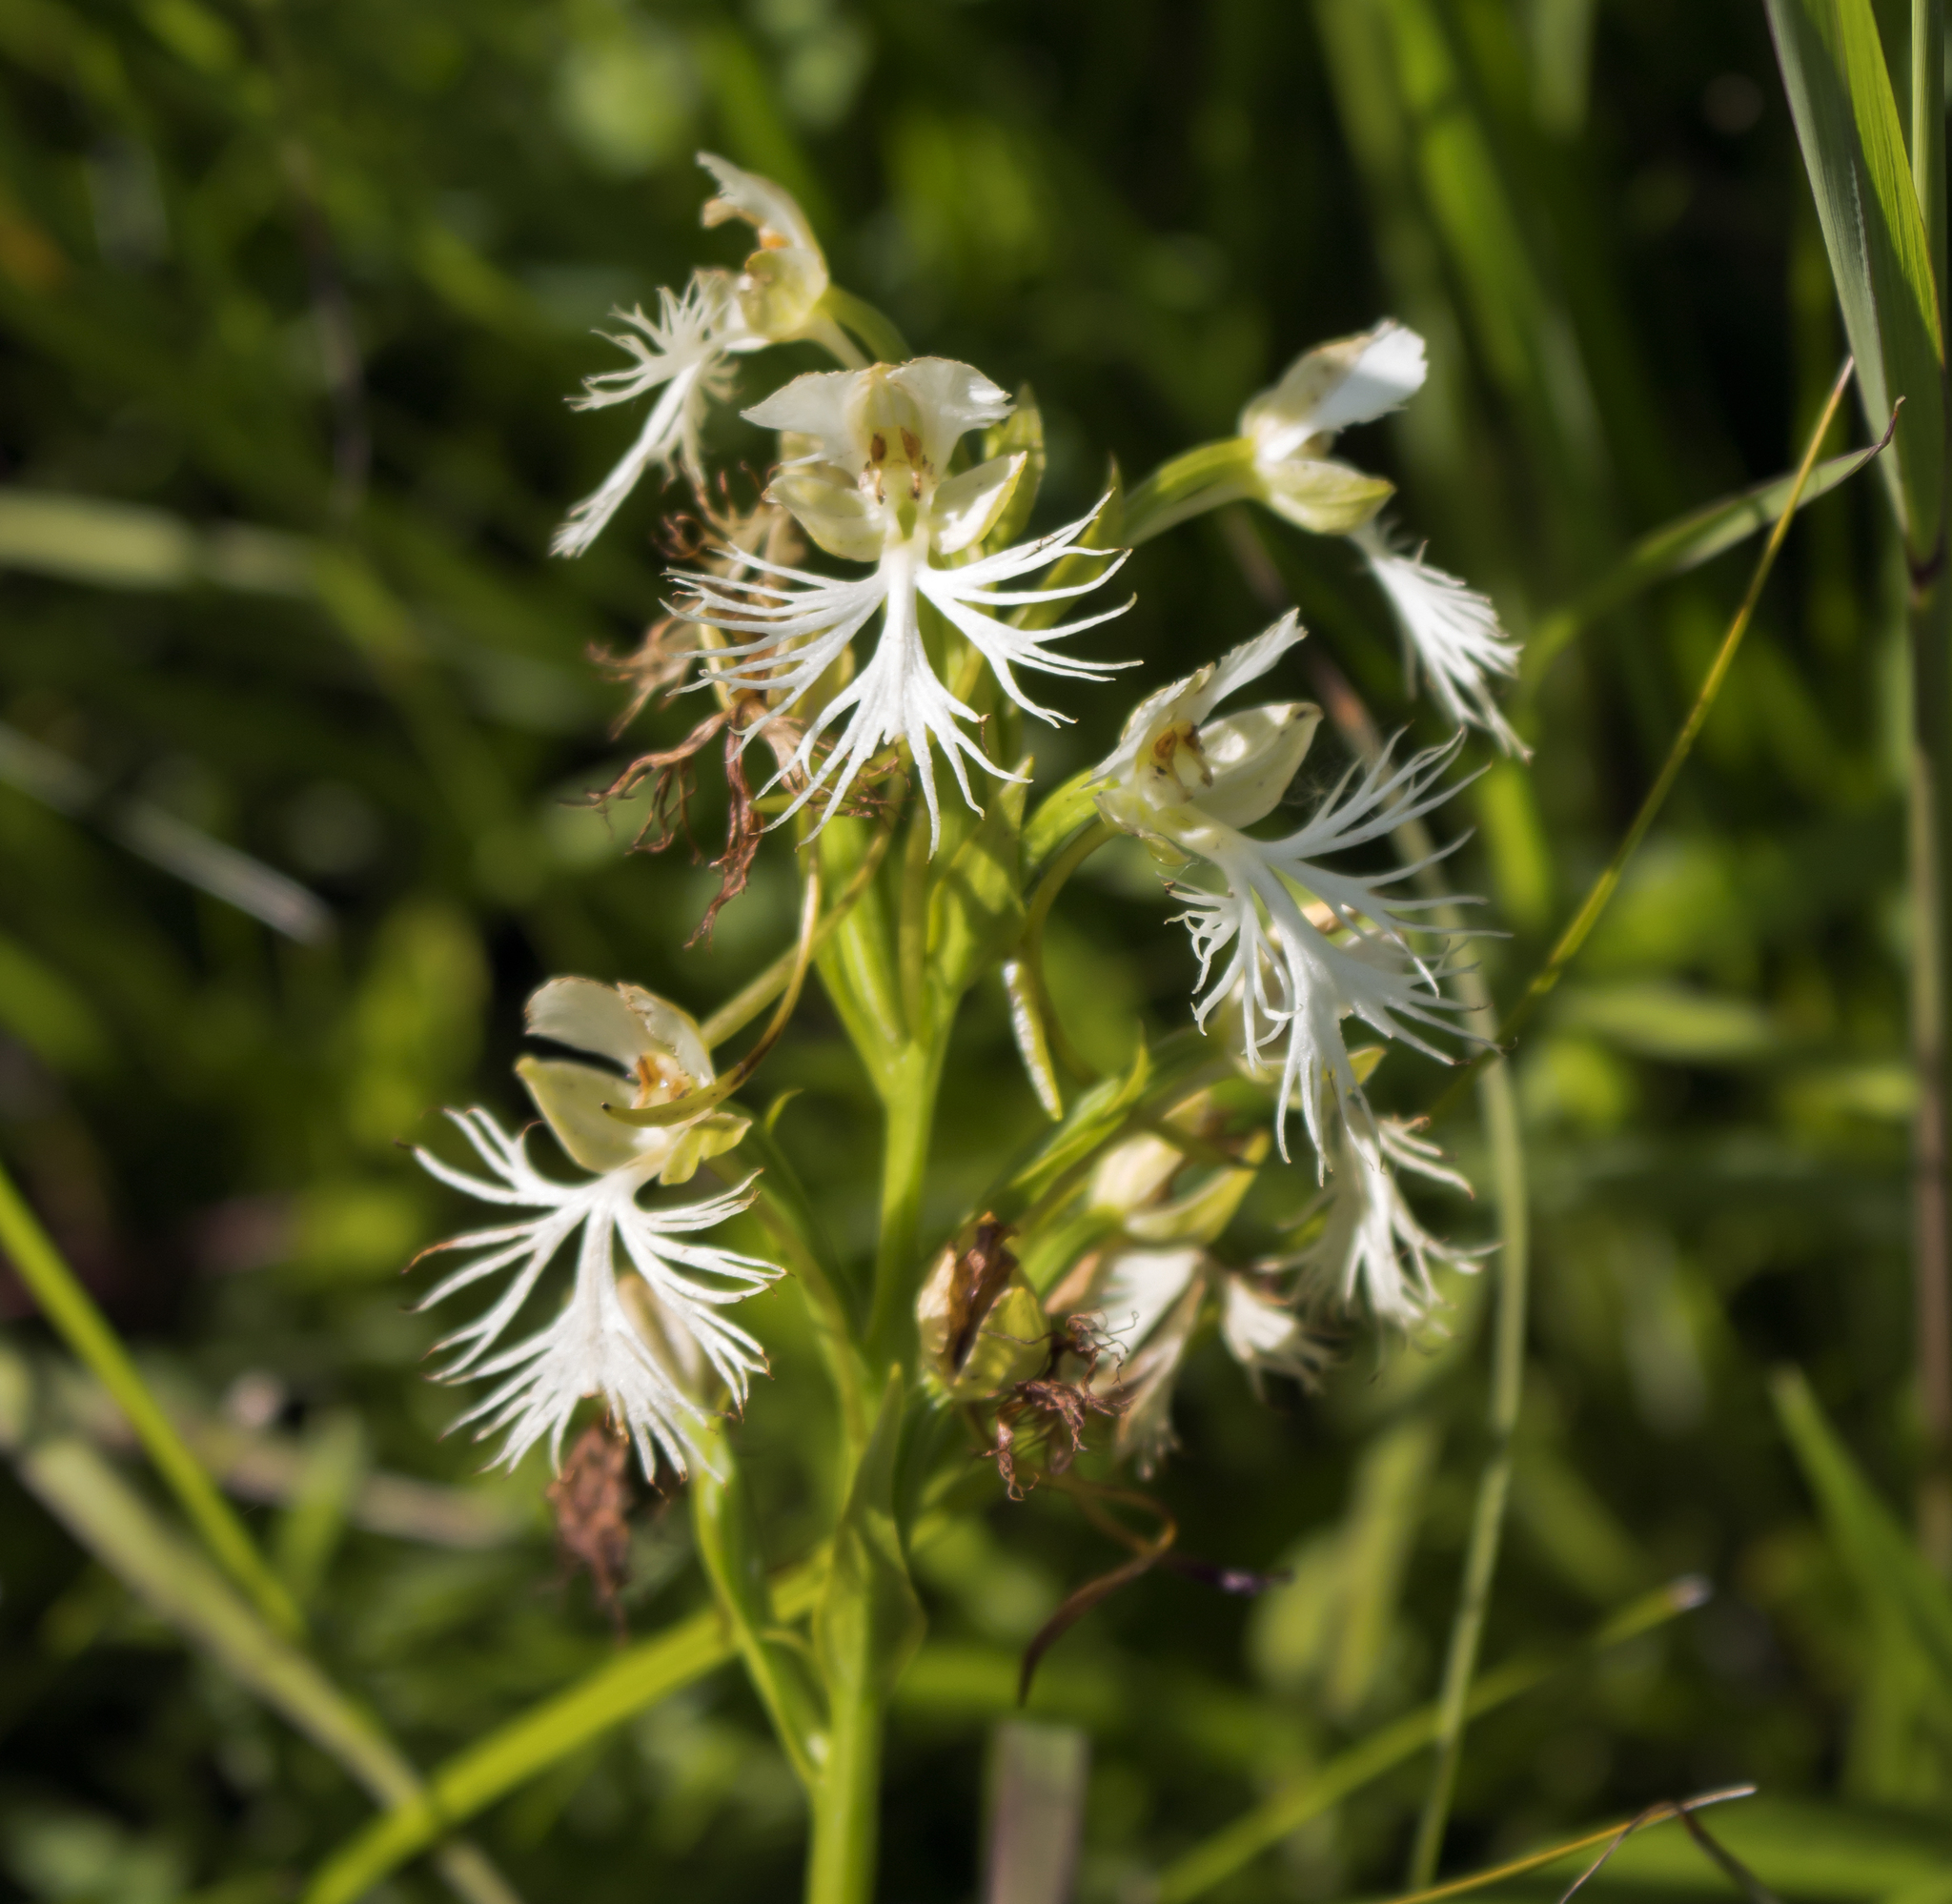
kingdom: Plantae
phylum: Tracheophyta
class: Liliopsida
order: Asparagales
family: Orchidaceae
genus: Platanthera
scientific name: Platanthera leucophaea
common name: Eastern prairie white-fringed orchid
